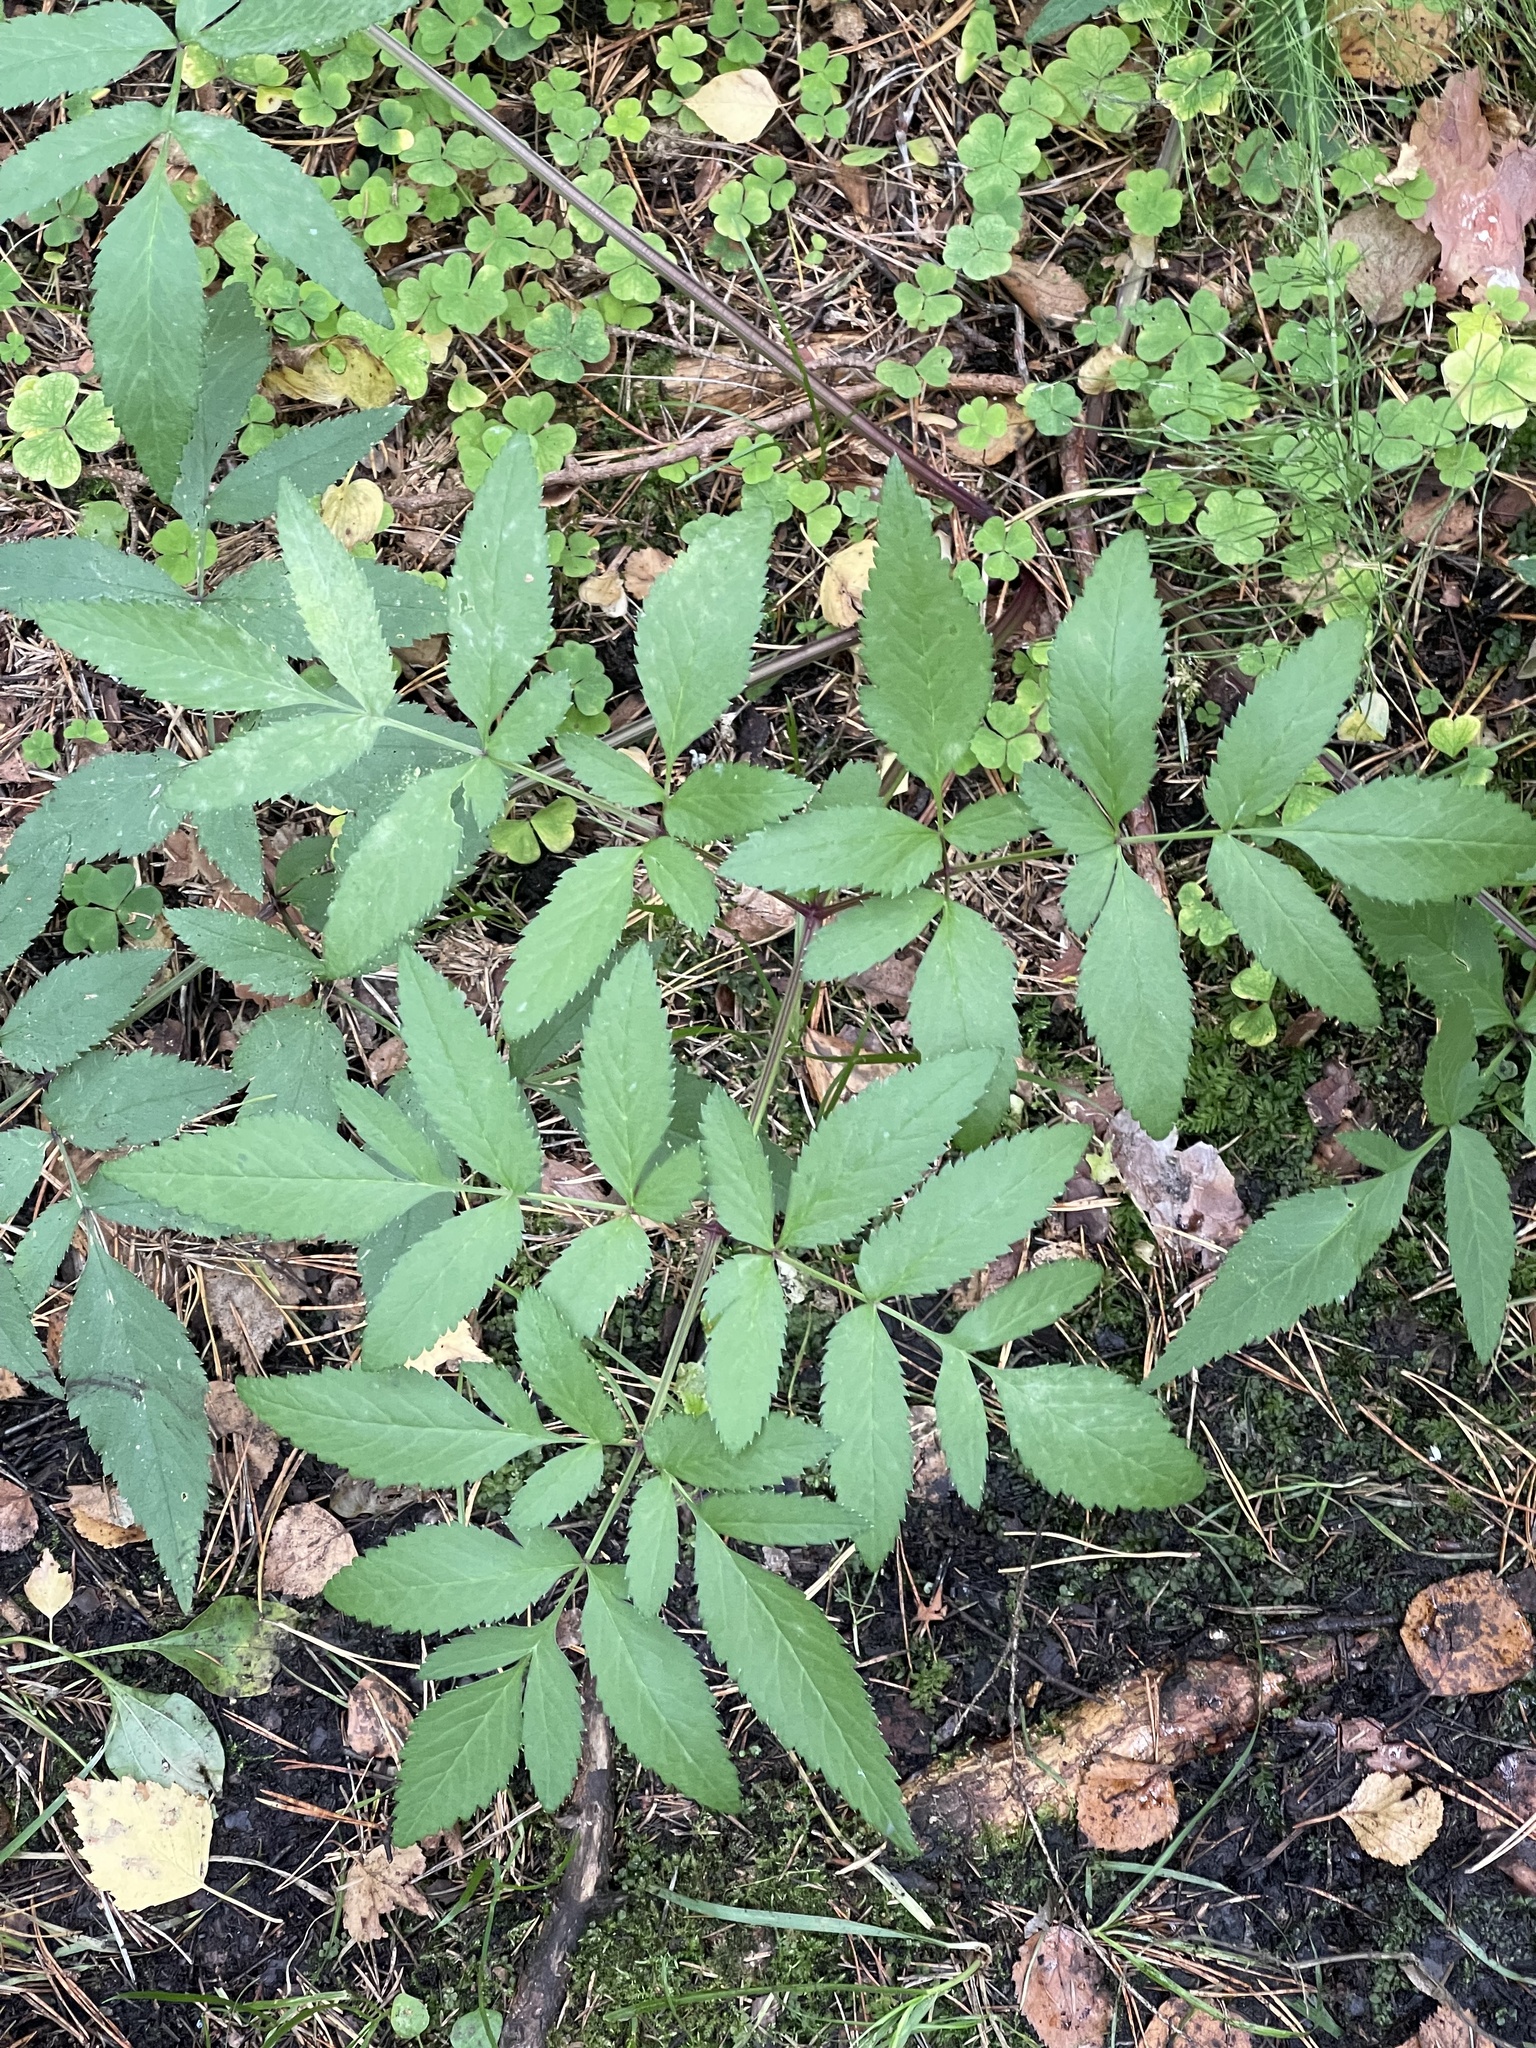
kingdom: Plantae
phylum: Tracheophyta
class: Magnoliopsida
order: Apiales
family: Apiaceae
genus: Angelica
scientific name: Angelica sylvestris
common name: Wild angelica
